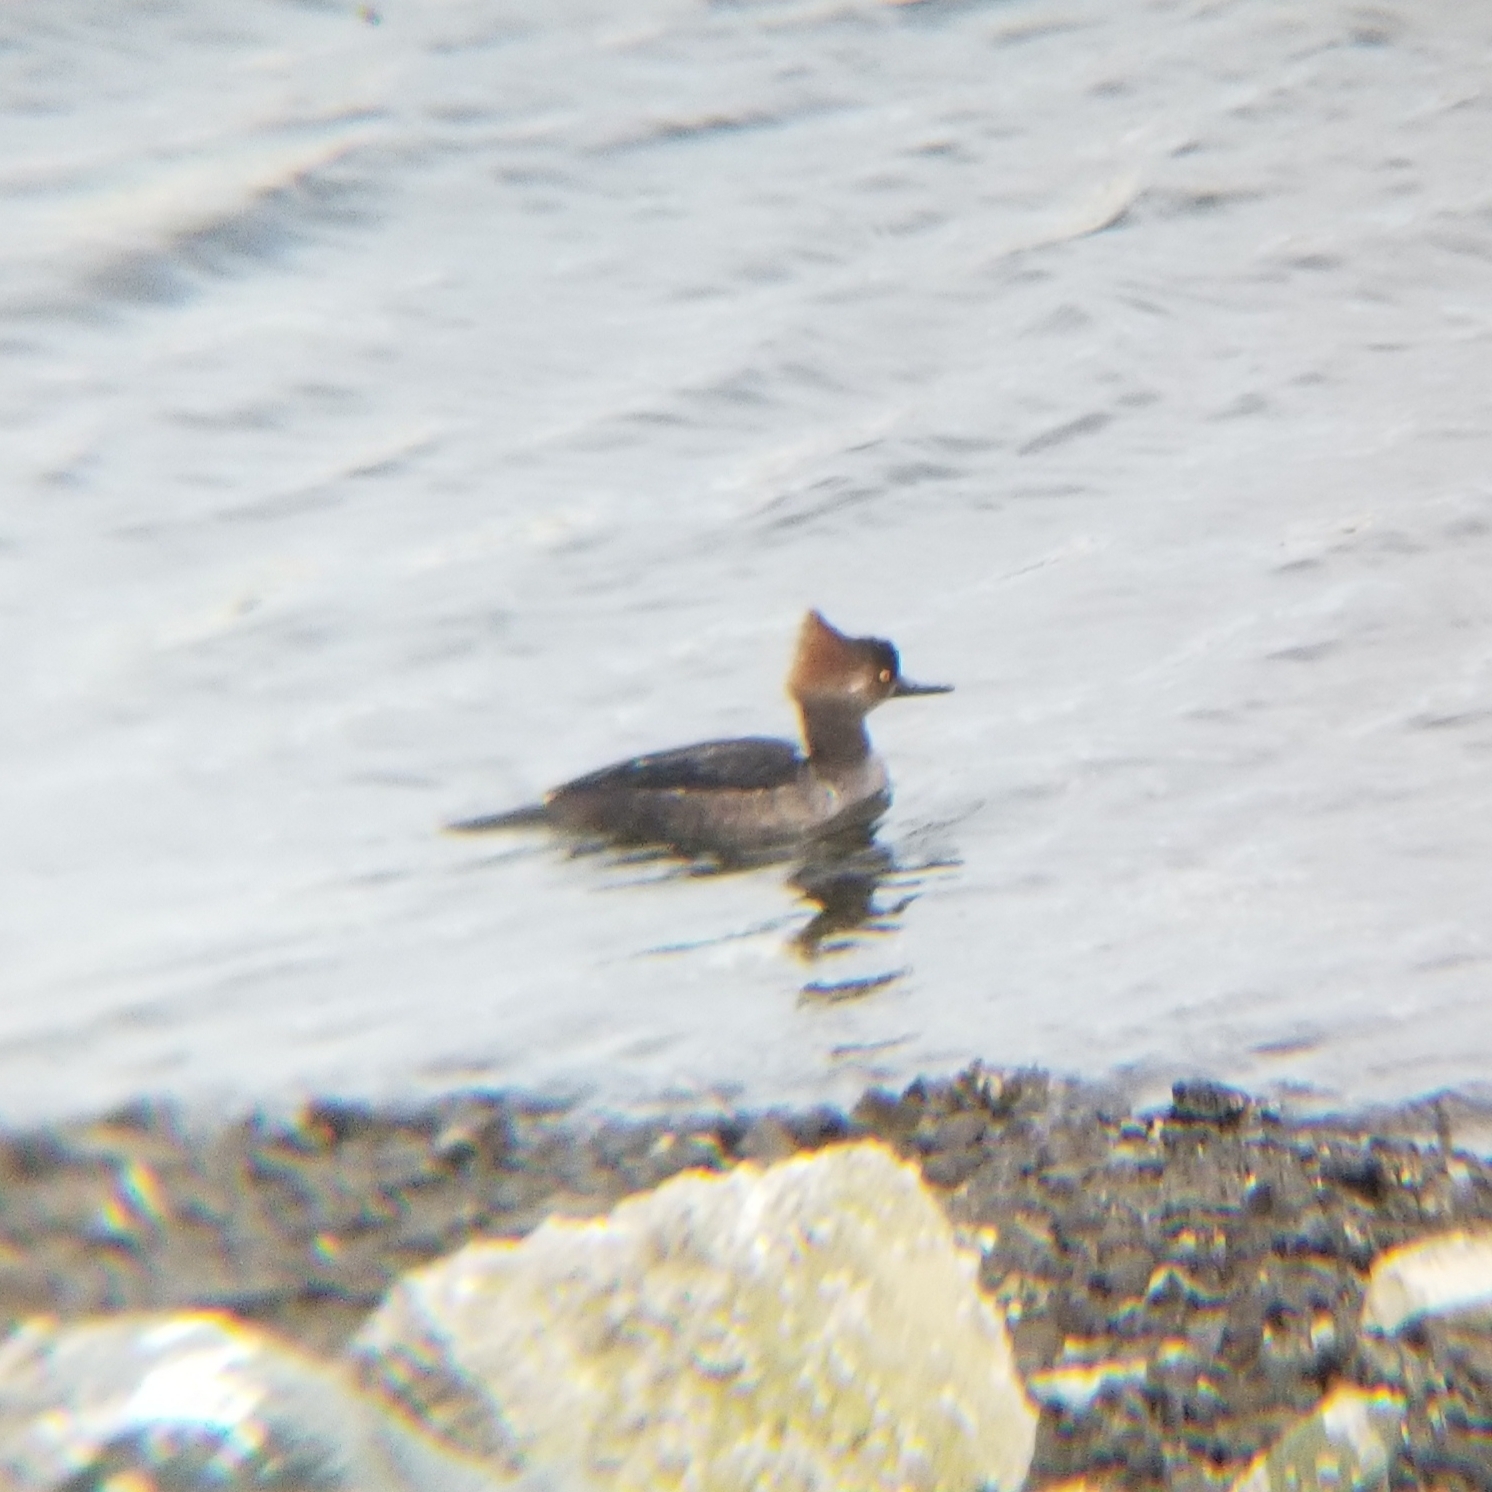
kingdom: Animalia
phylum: Chordata
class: Aves
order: Anseriformes
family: Anatidae
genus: Lophodytes
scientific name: Lophodytes cucullatus
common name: Hooded merganser
